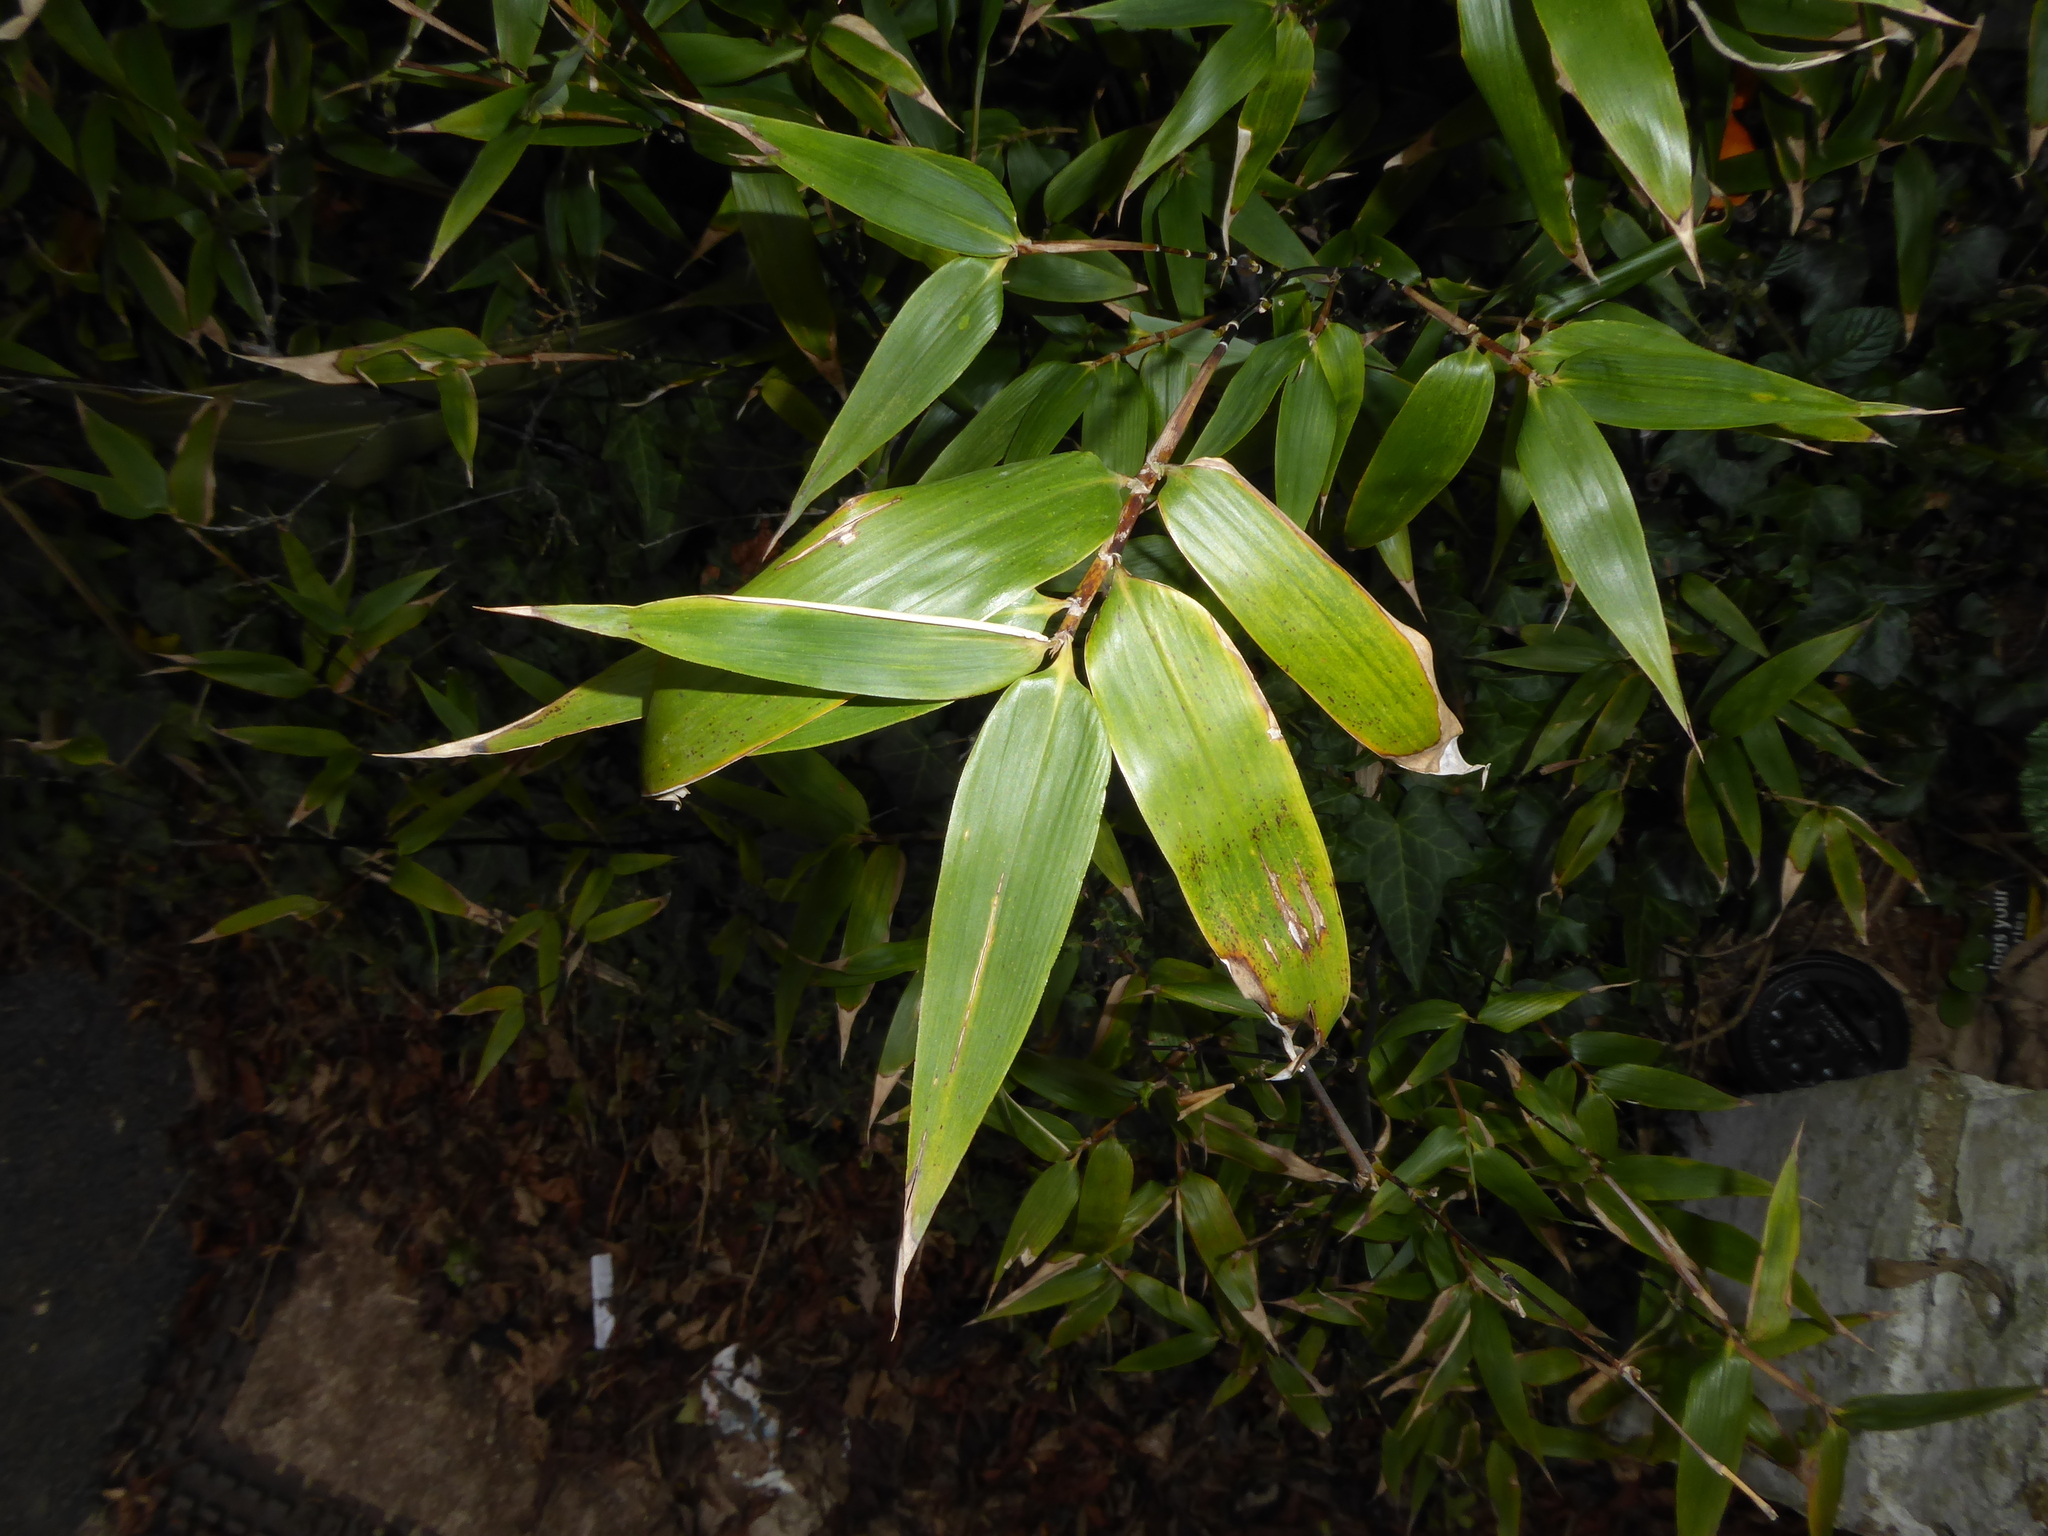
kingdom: Plantae
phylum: Tracheophyta
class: Liliopsida
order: Poales
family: Poaceae
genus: Phyllostachys
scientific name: Phyllostachys nigra
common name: Black bamboo
